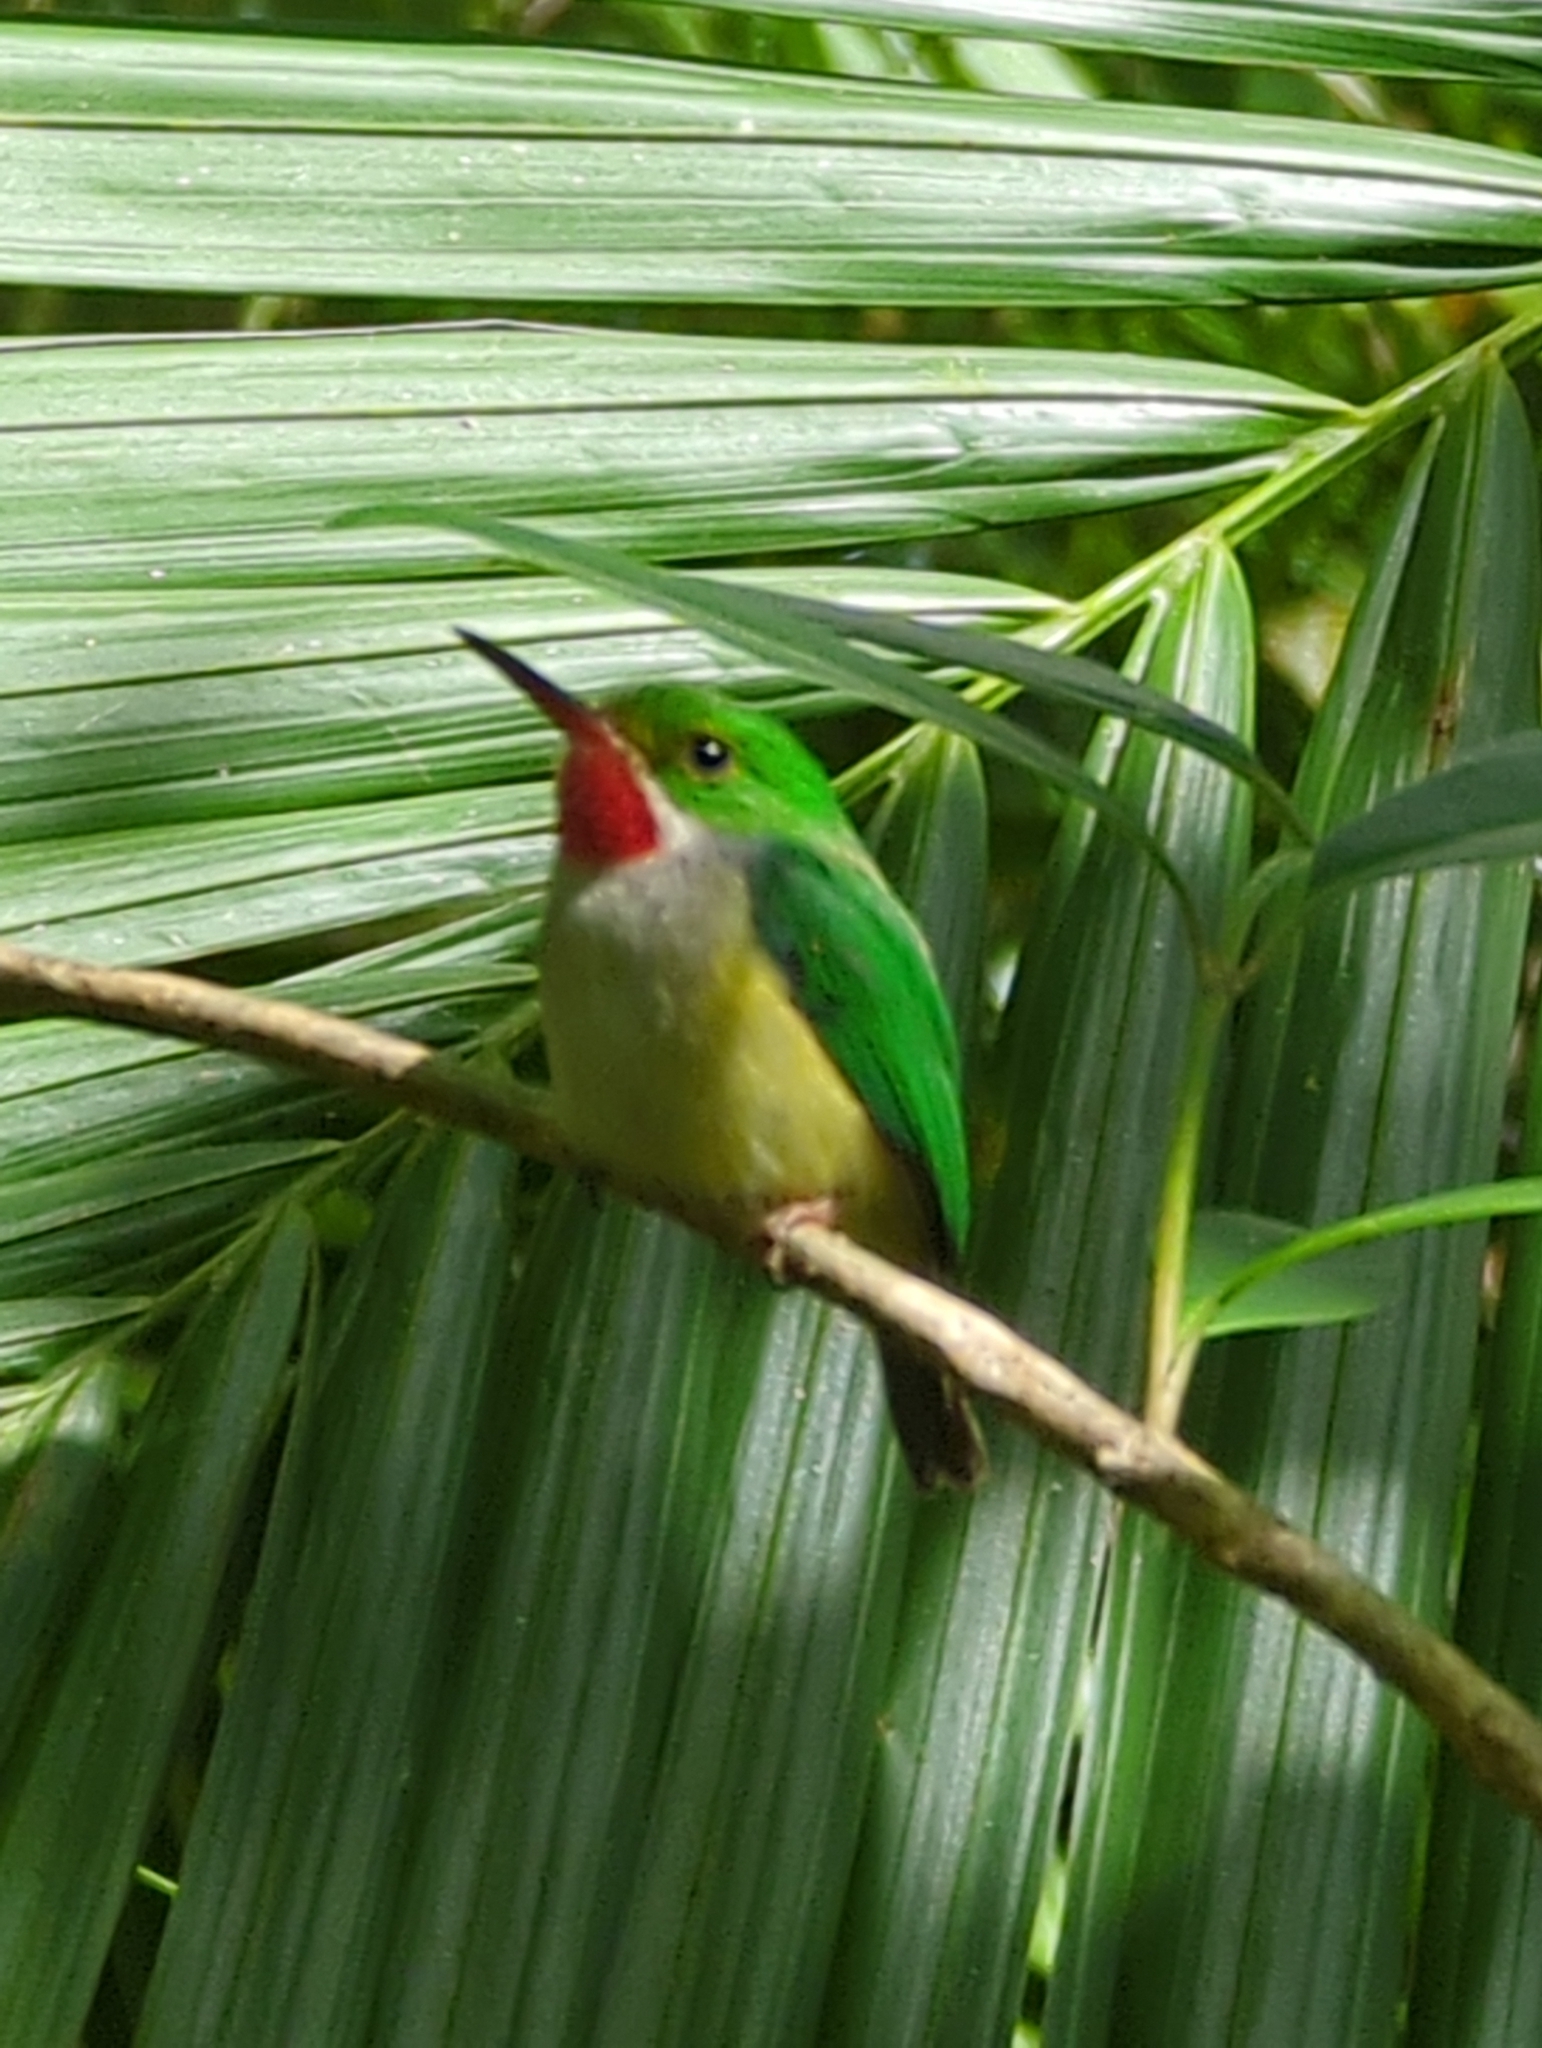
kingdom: Animalia
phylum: Chordata
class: Aves
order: Coraciiformes
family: Todidae
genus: Todus
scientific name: Todus mexicanus
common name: Puerto rican tody
